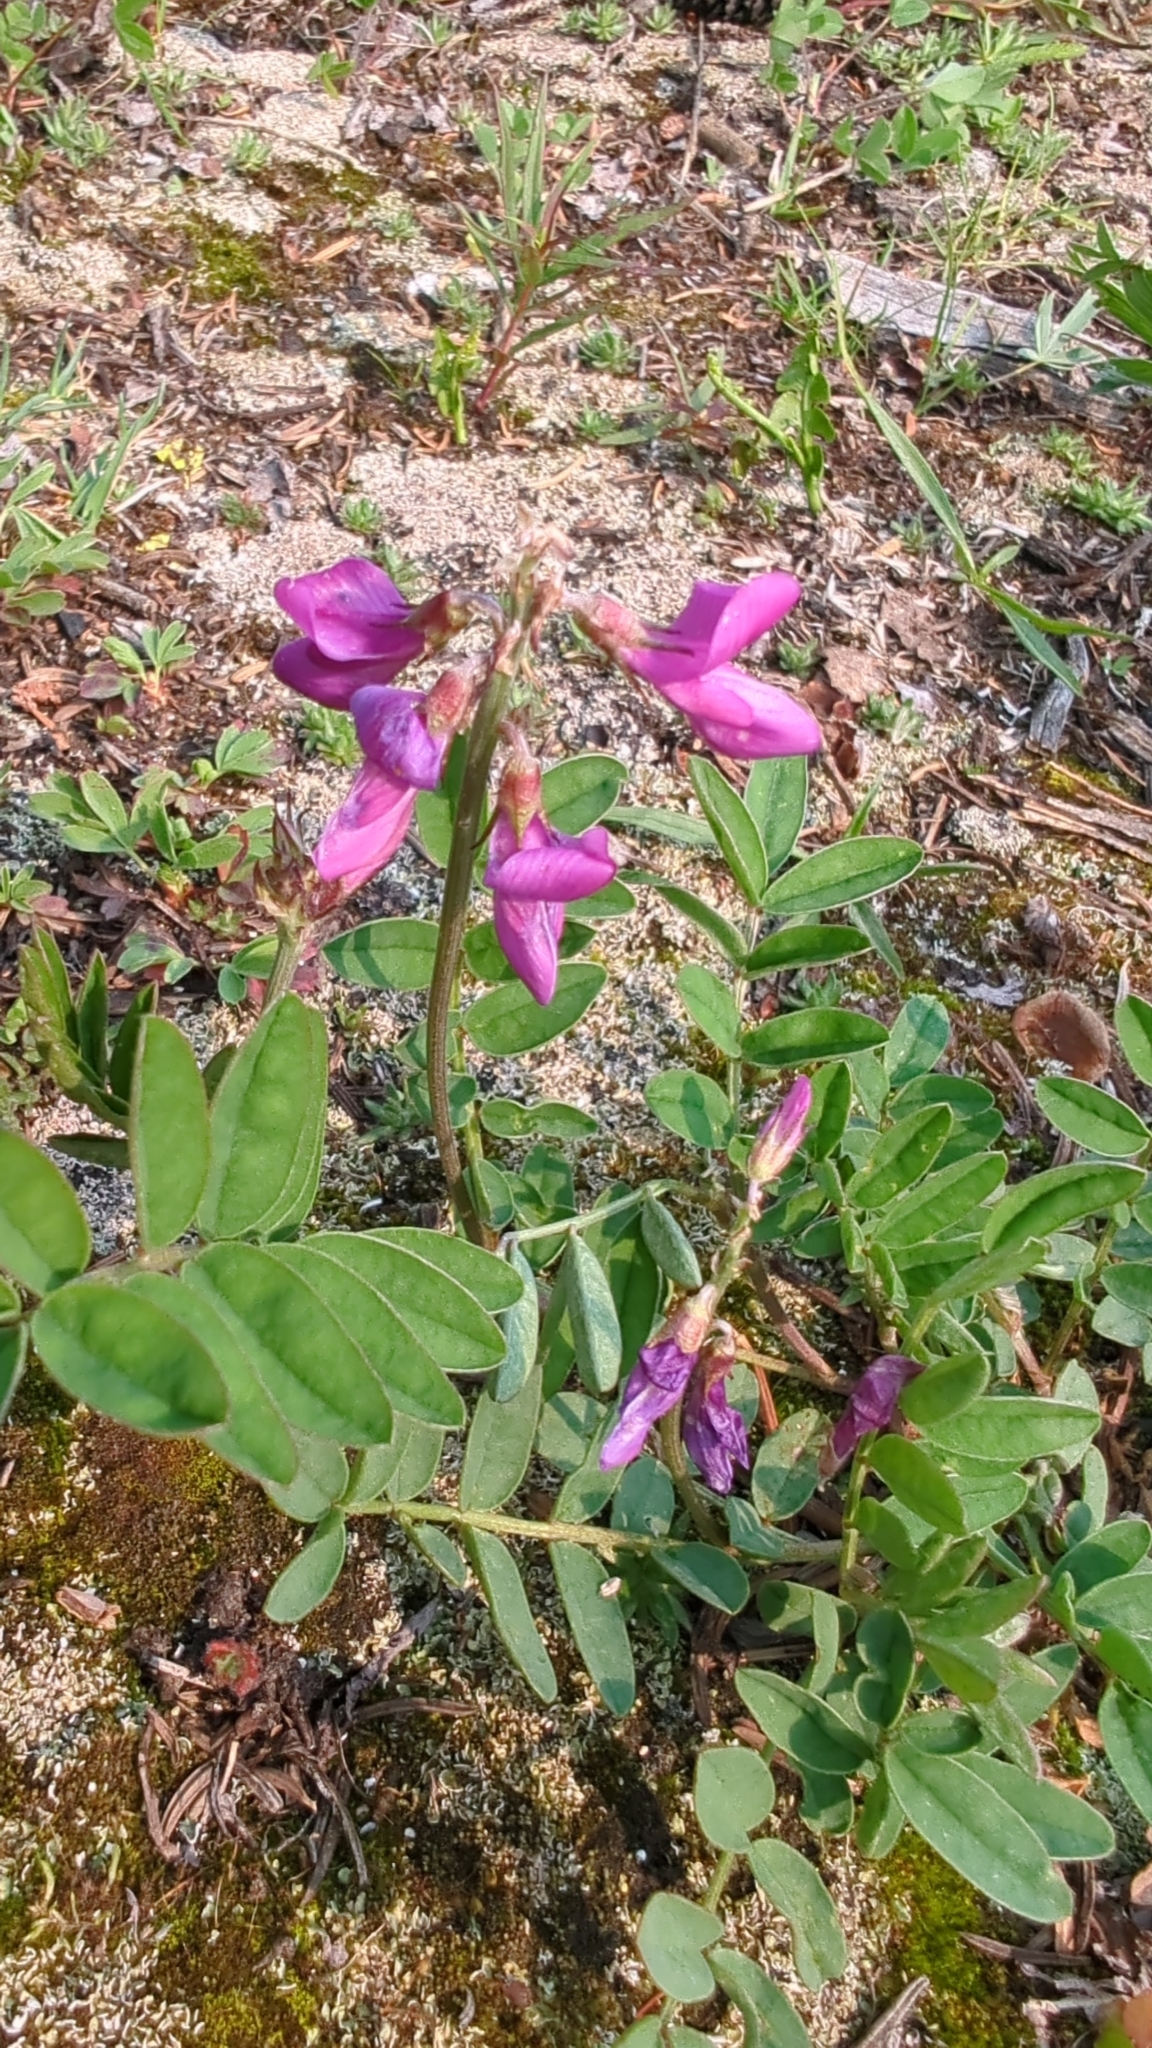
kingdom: Plantae
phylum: Tracheophyta
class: Magnoliopsida
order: Fabales
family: Fabaceae
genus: Hedysarum
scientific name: Hedysarum boreale
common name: Northern sweet-vetch
